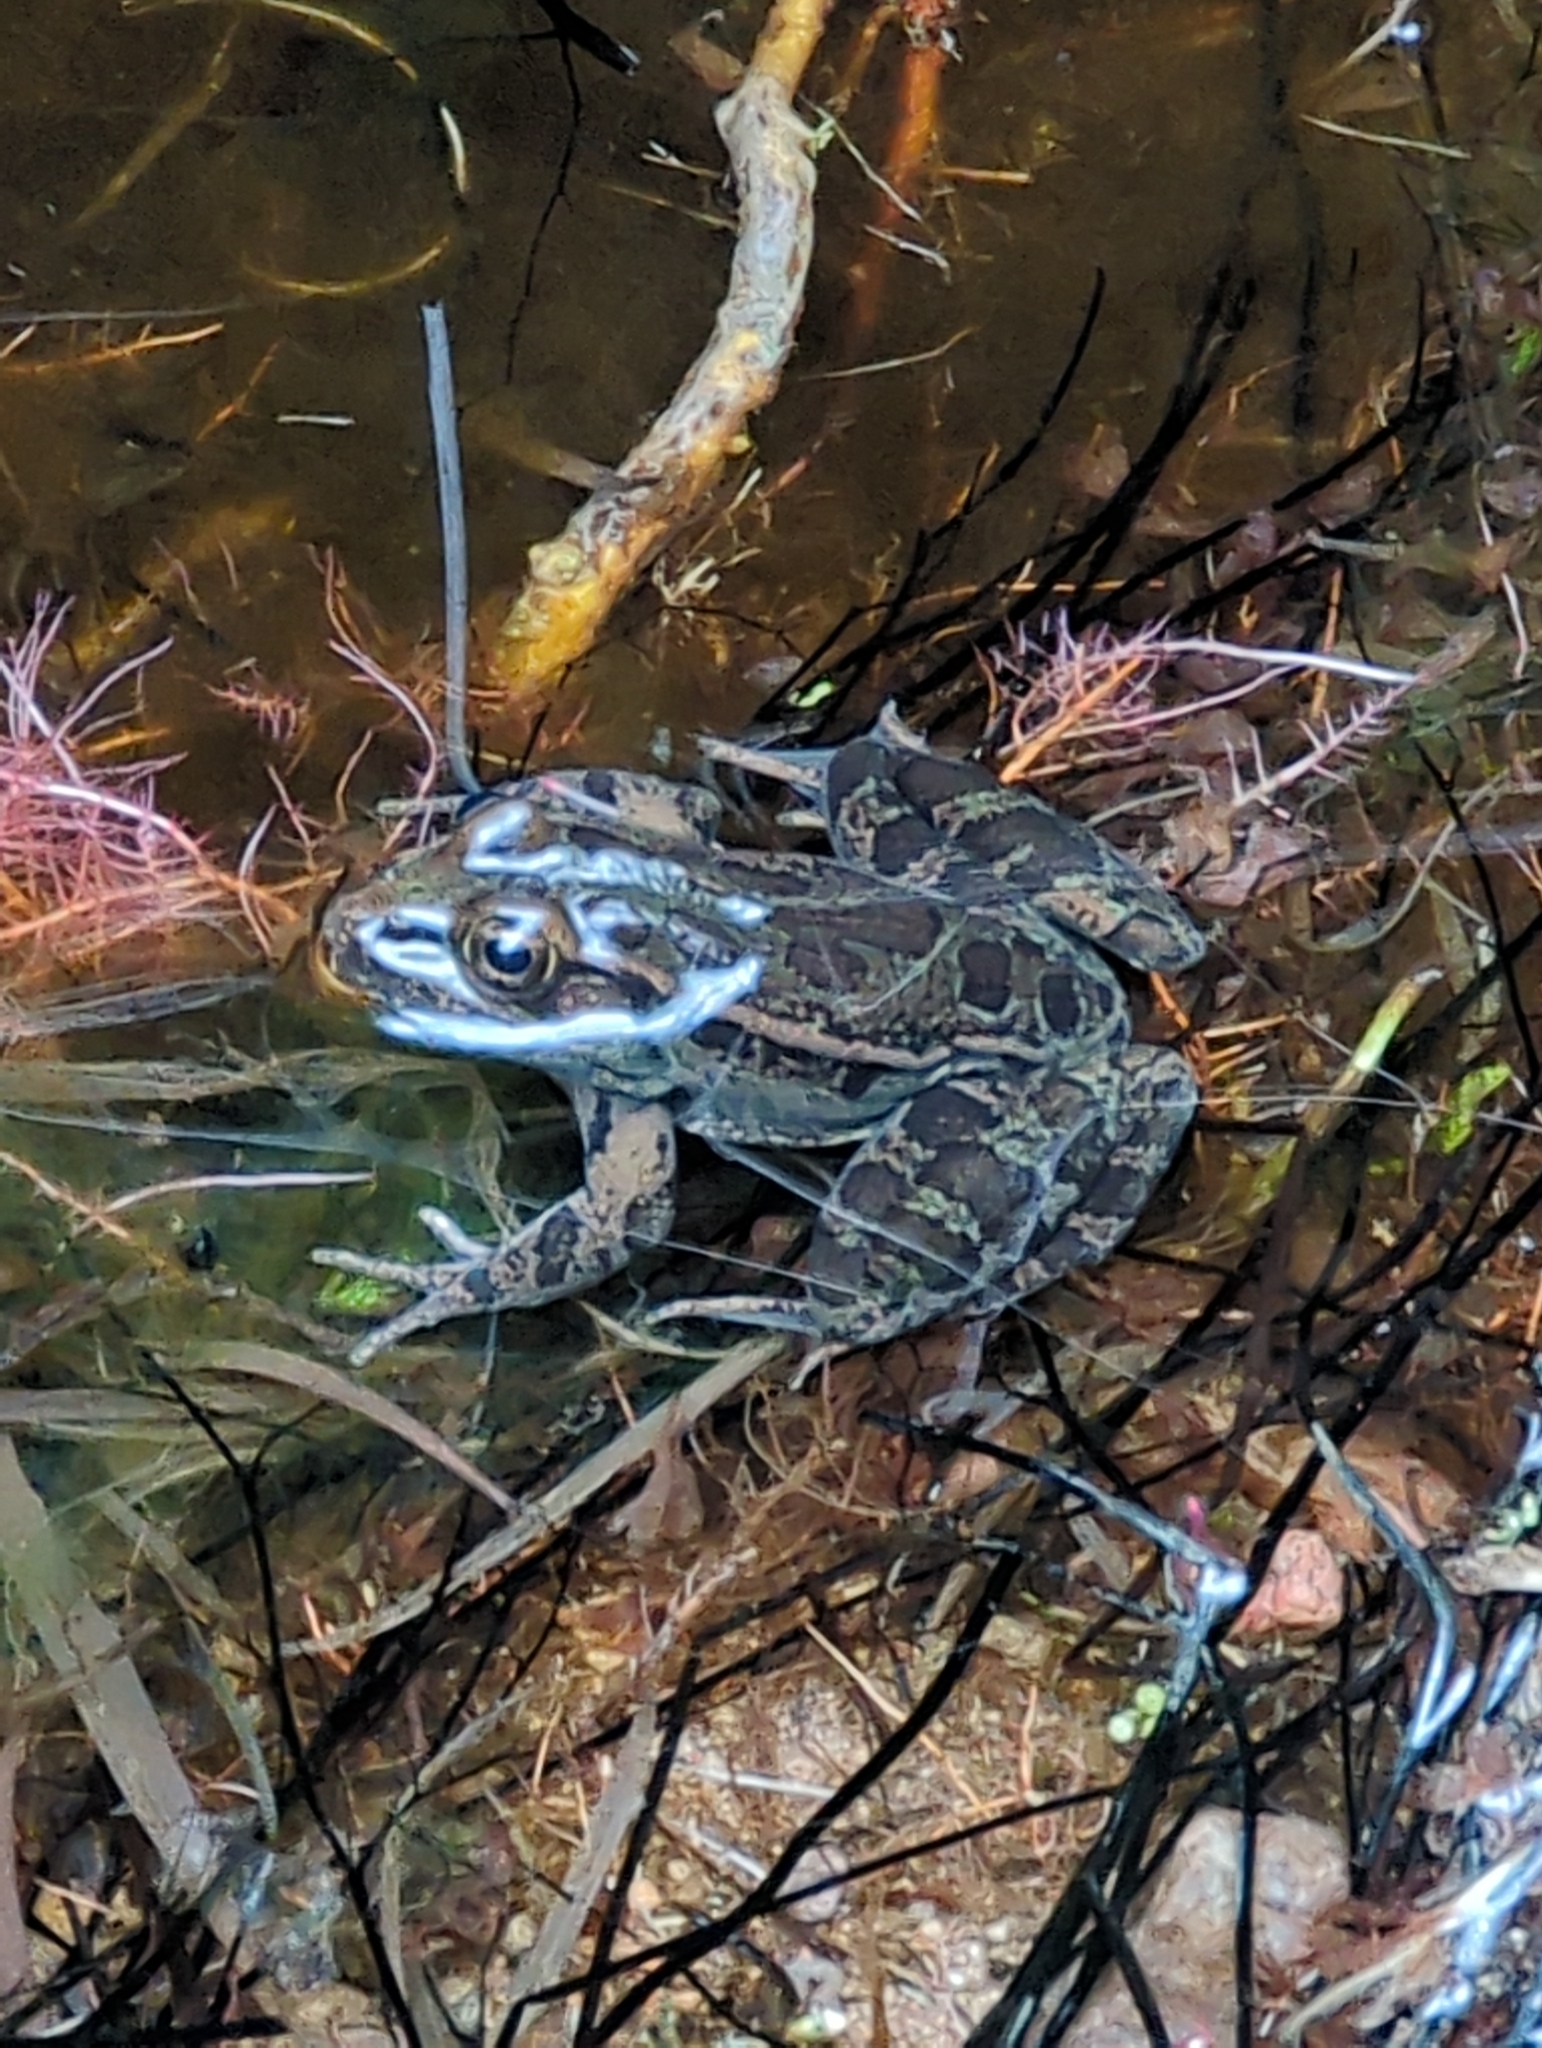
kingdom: Animalia
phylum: Chordata
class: Amphibia
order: Anura
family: Ranidae
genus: Lithobates
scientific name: Lithobates berlandieri
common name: Rio grande leopard frog
